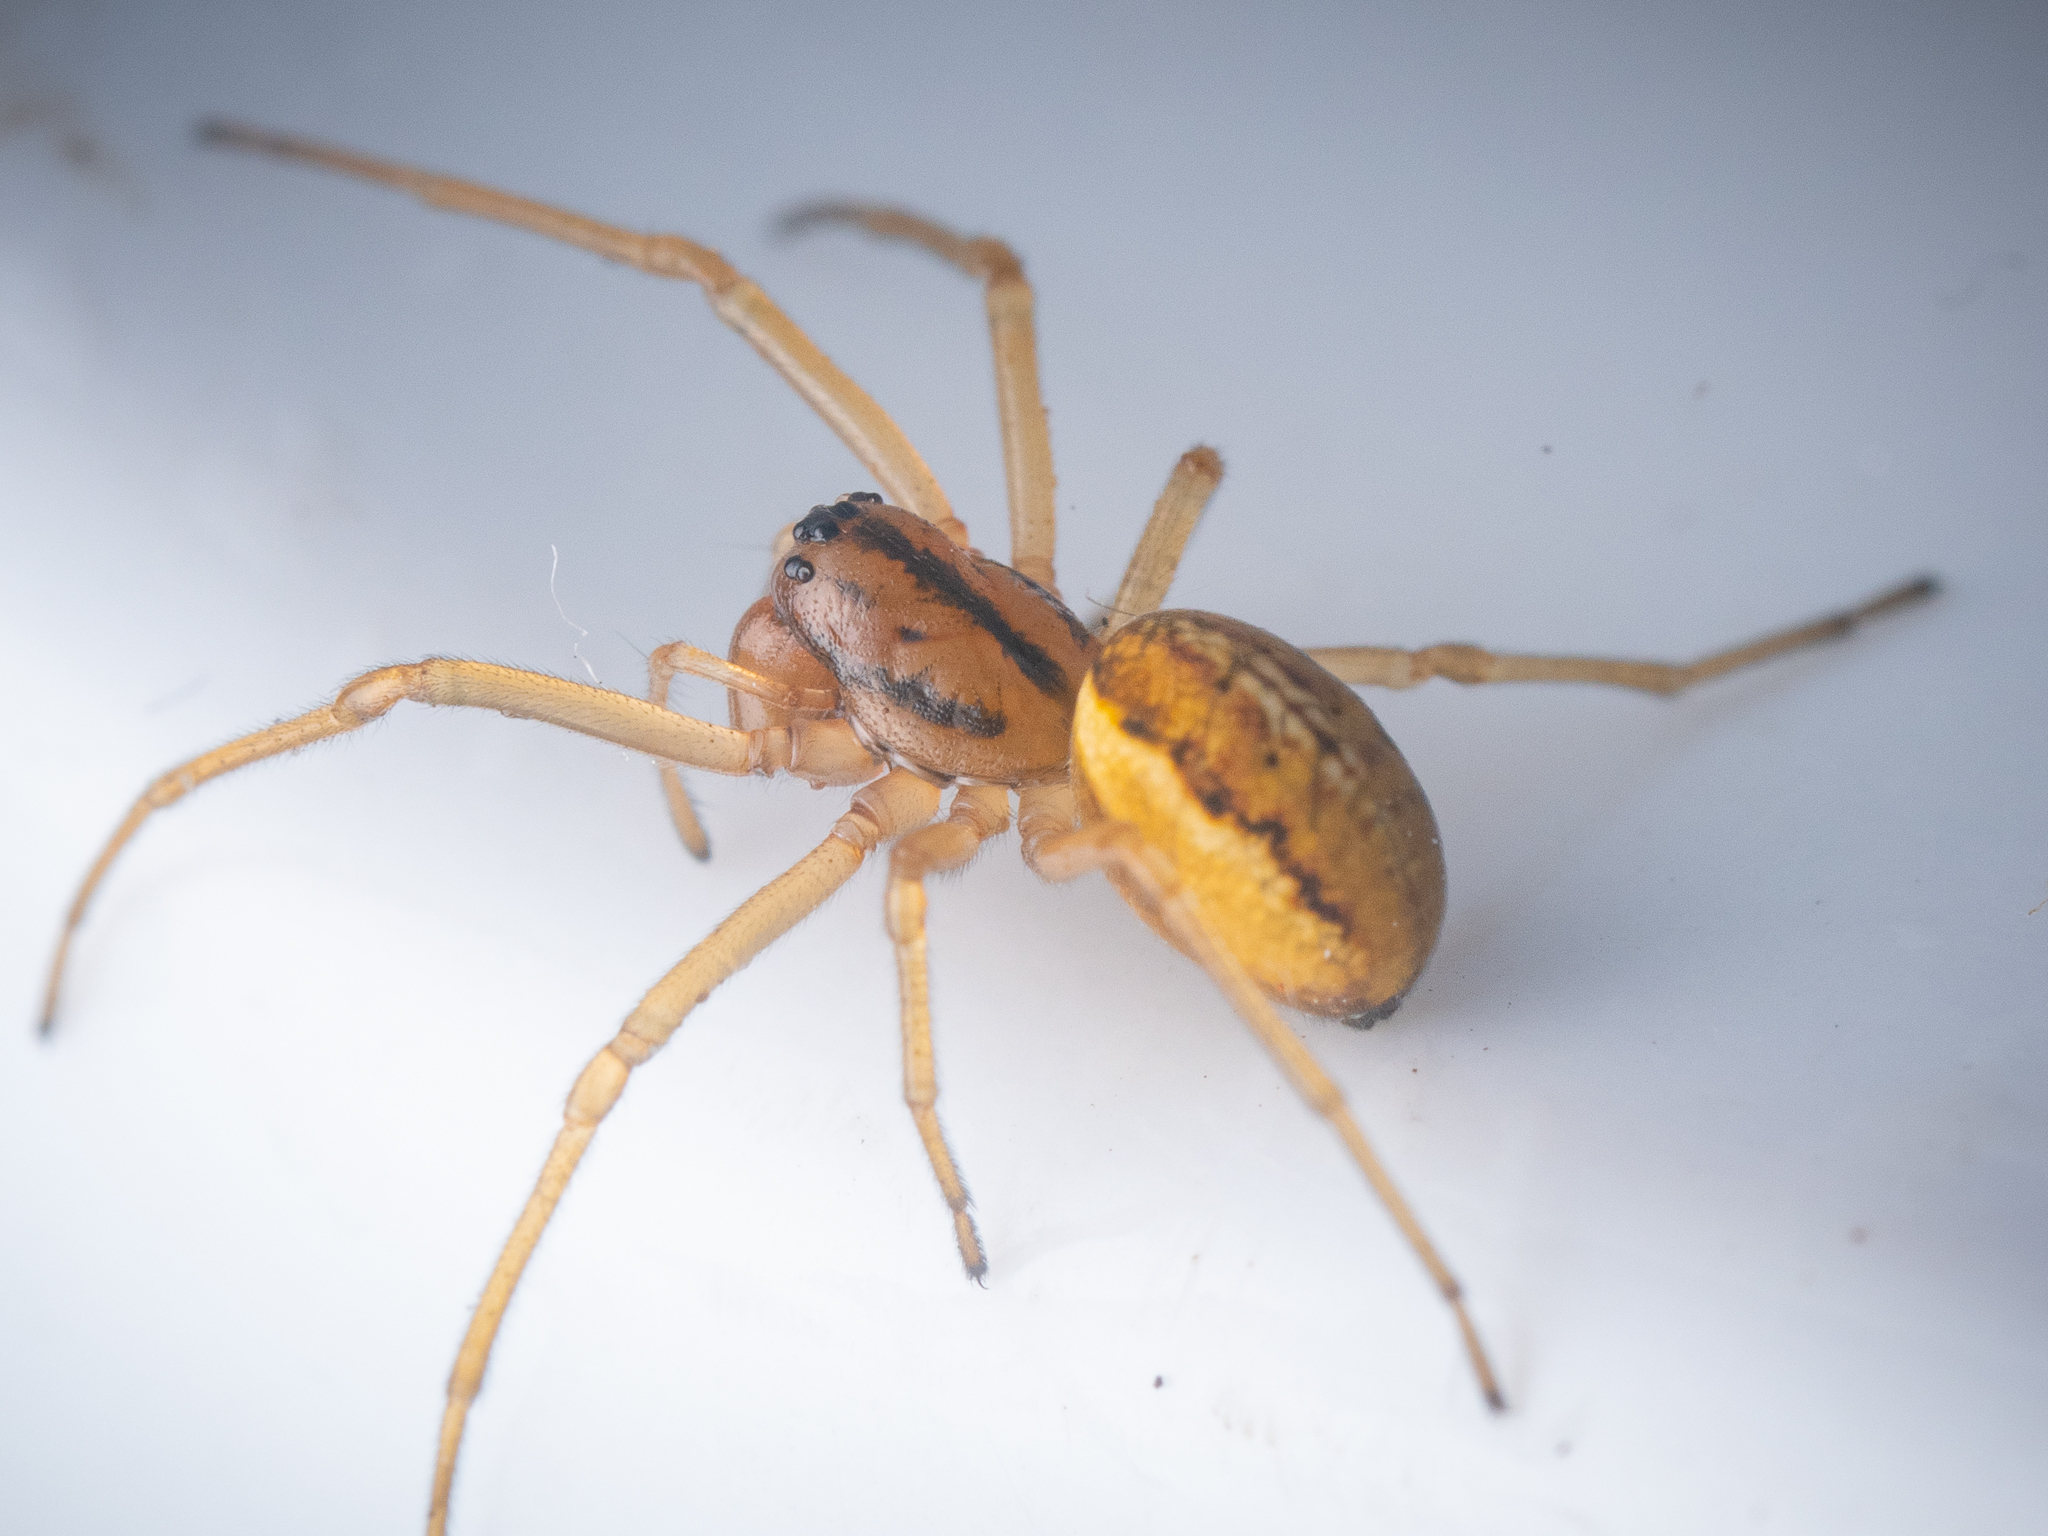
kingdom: Animalia
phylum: Arthropoda
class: Arachnida
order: Araneae
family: Tetragnathidae
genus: Pachygnatha
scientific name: Pachygnatha clercki
